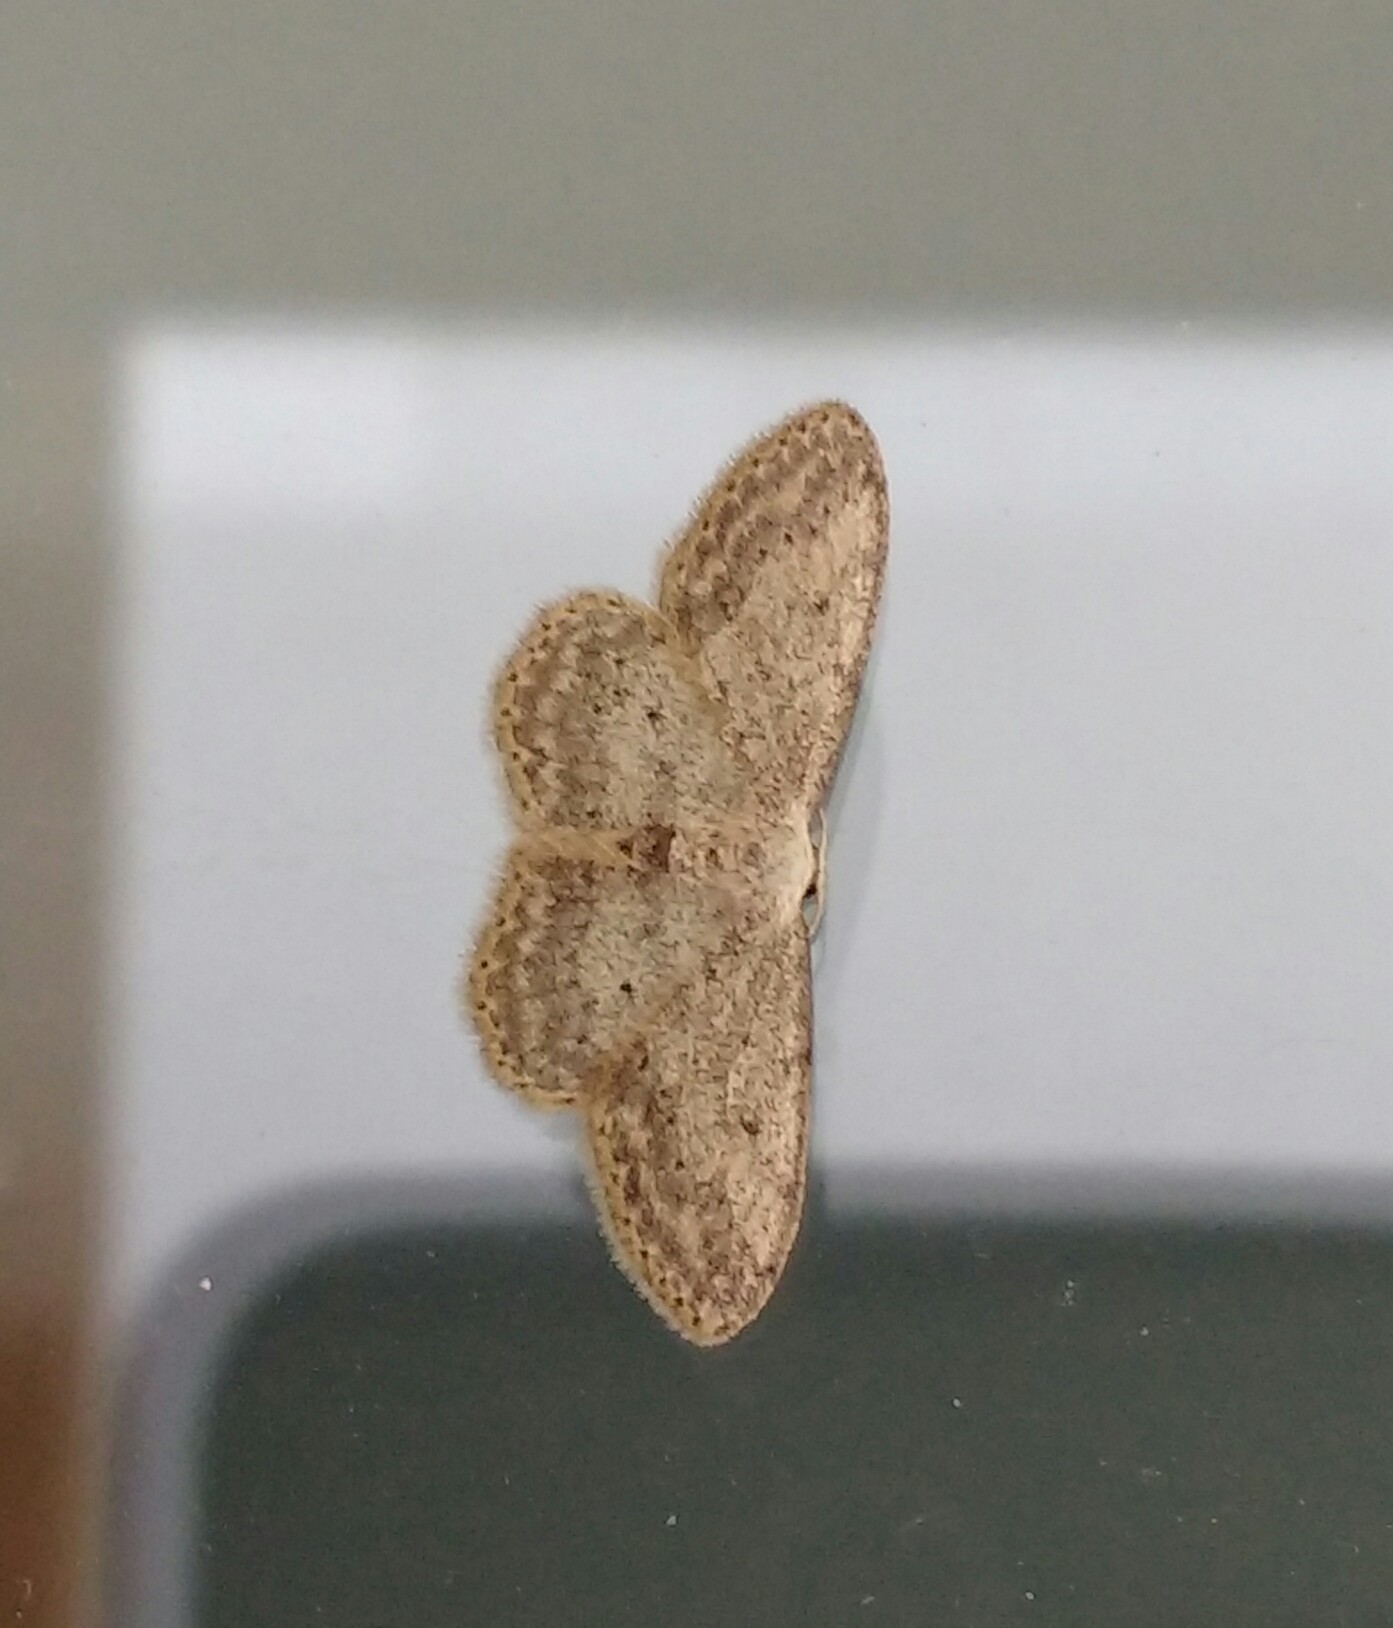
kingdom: Animalia
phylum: Arthropoda
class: Insecta
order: Lepidoptera
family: Geometridae
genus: Idaea
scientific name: Idaea seriata
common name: Small dusty wave
